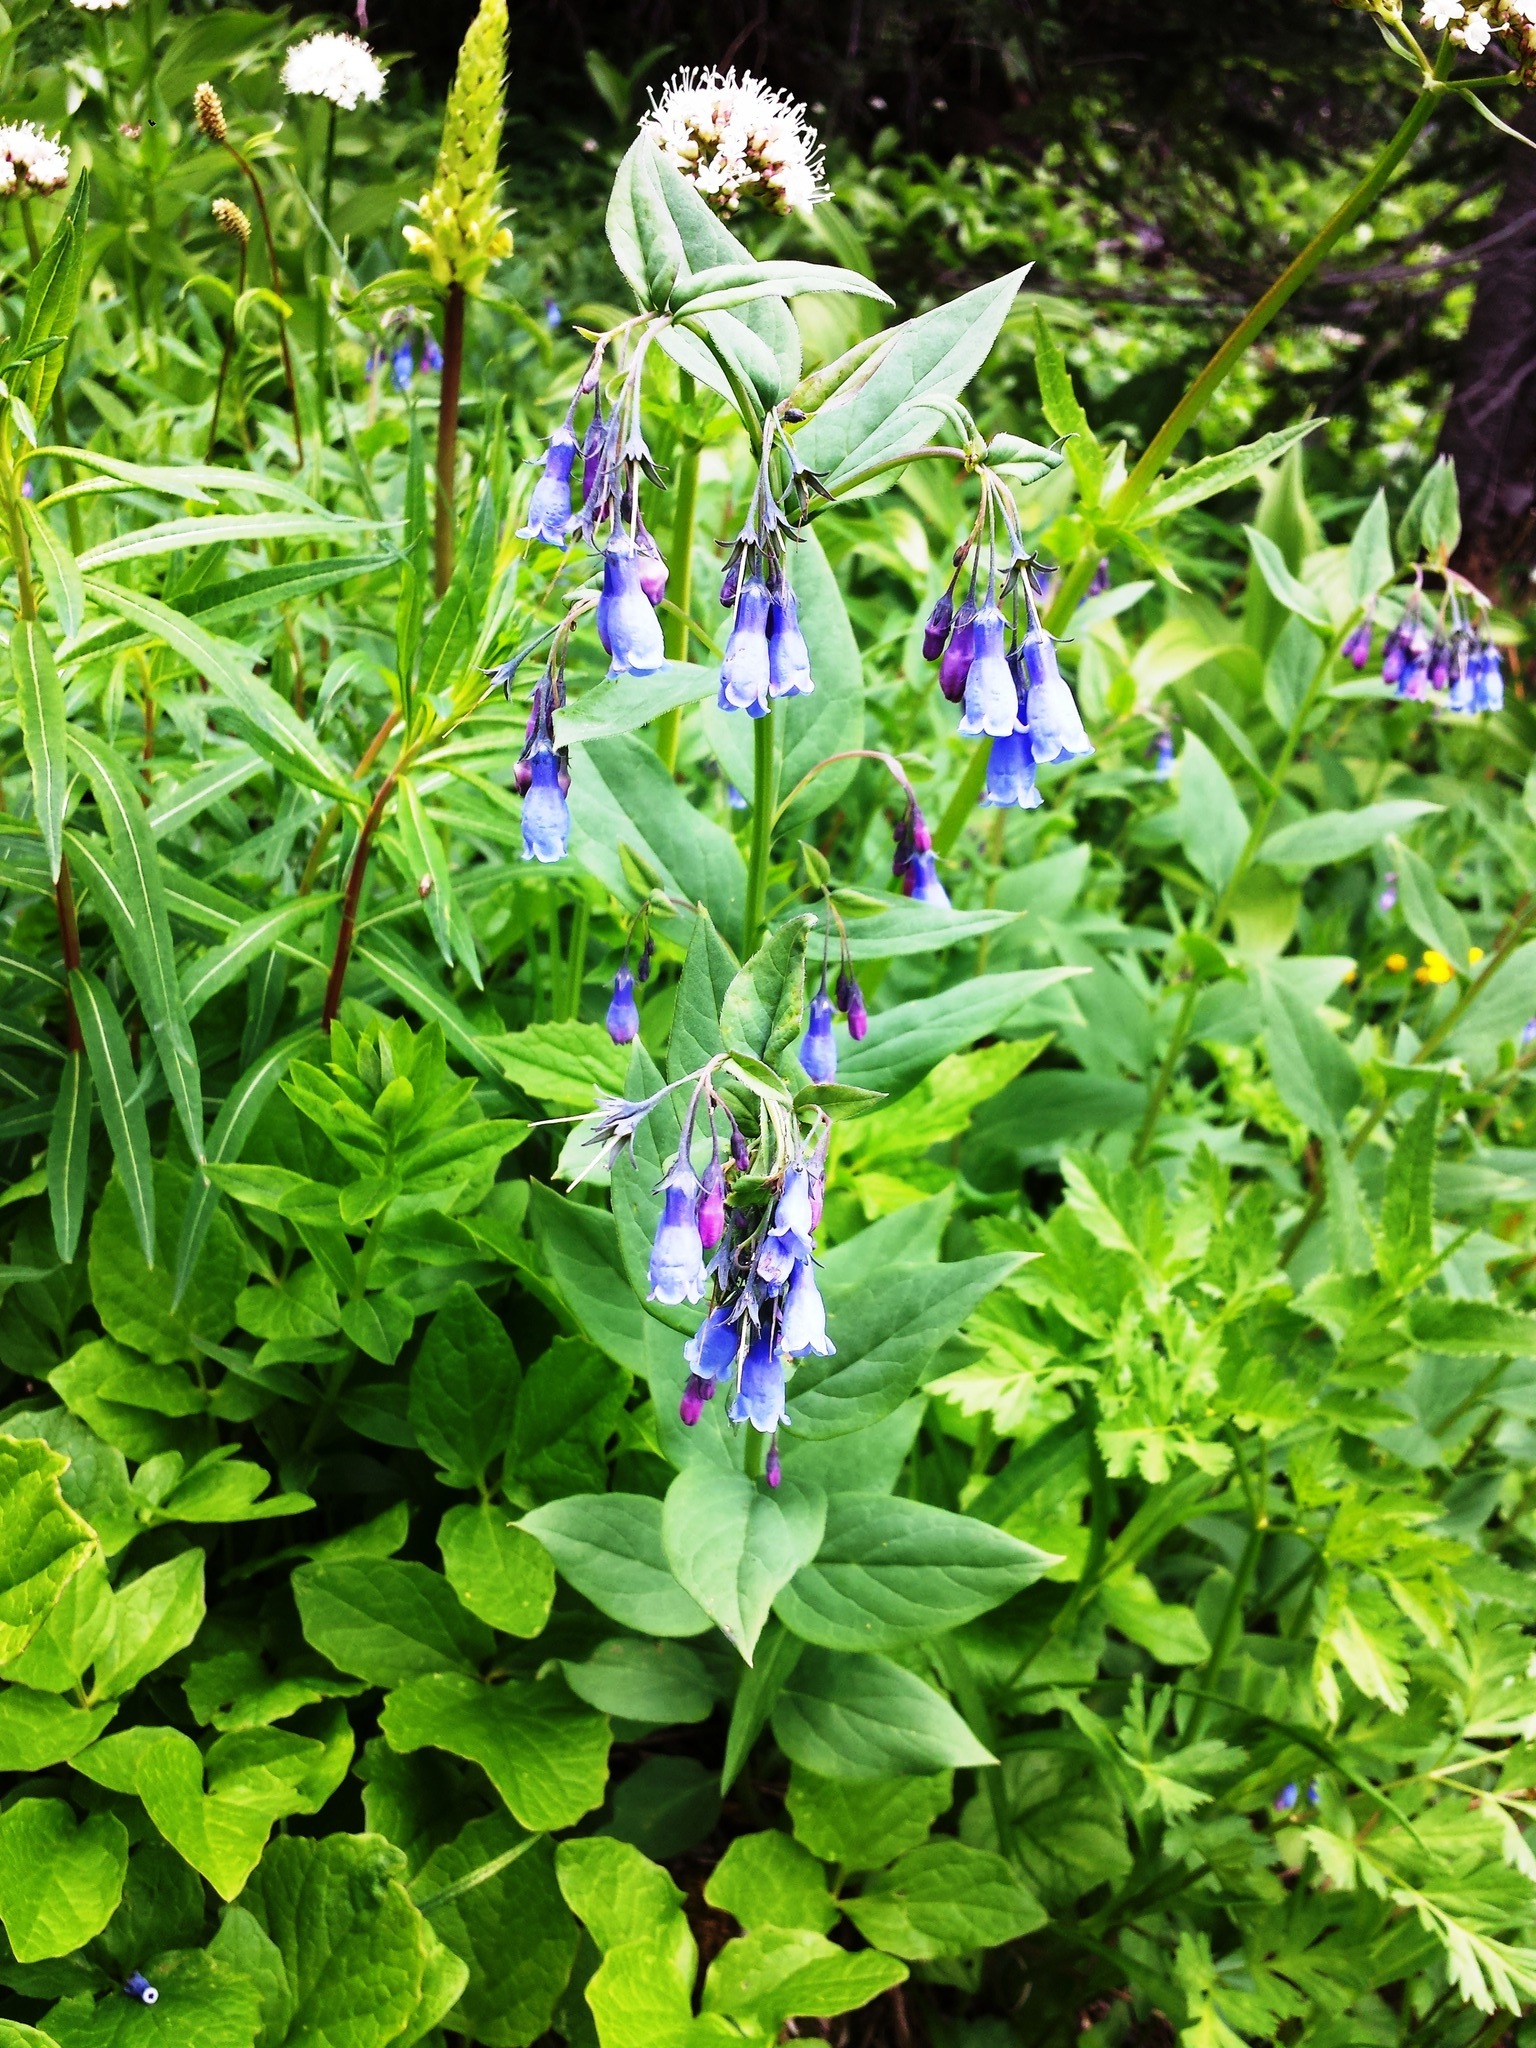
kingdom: Plantae
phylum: Tracheophyta
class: Magnoliopsida
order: Boraginales
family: Boraginaceae
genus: Mertensia
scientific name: Mertensia paniculata
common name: Panicled bluebells
